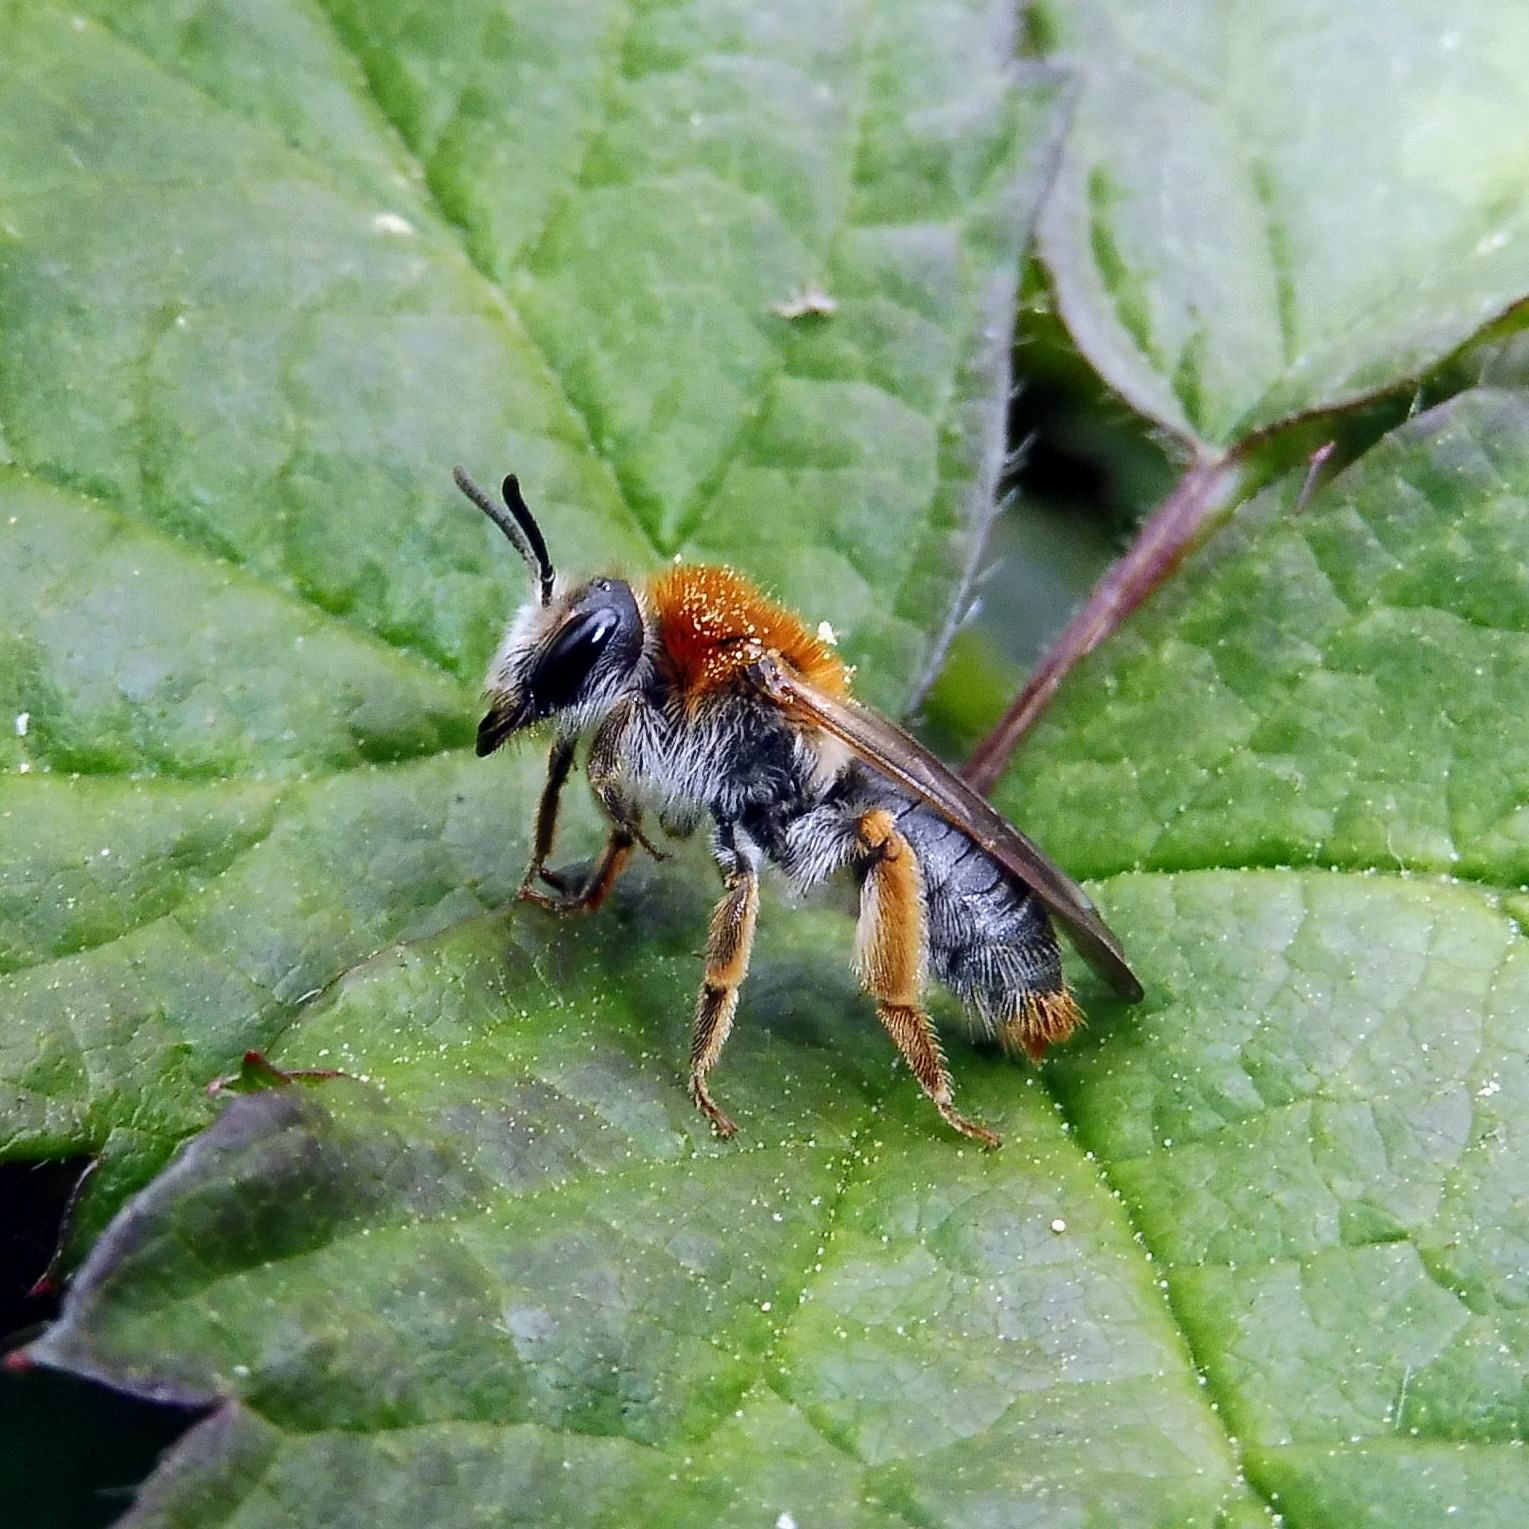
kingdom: Animalia
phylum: Arthropoda
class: Insecta
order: Hymenoptera
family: Andrenidae
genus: Andrena
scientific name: Andrena haemorrhoa
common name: Early mining bee
